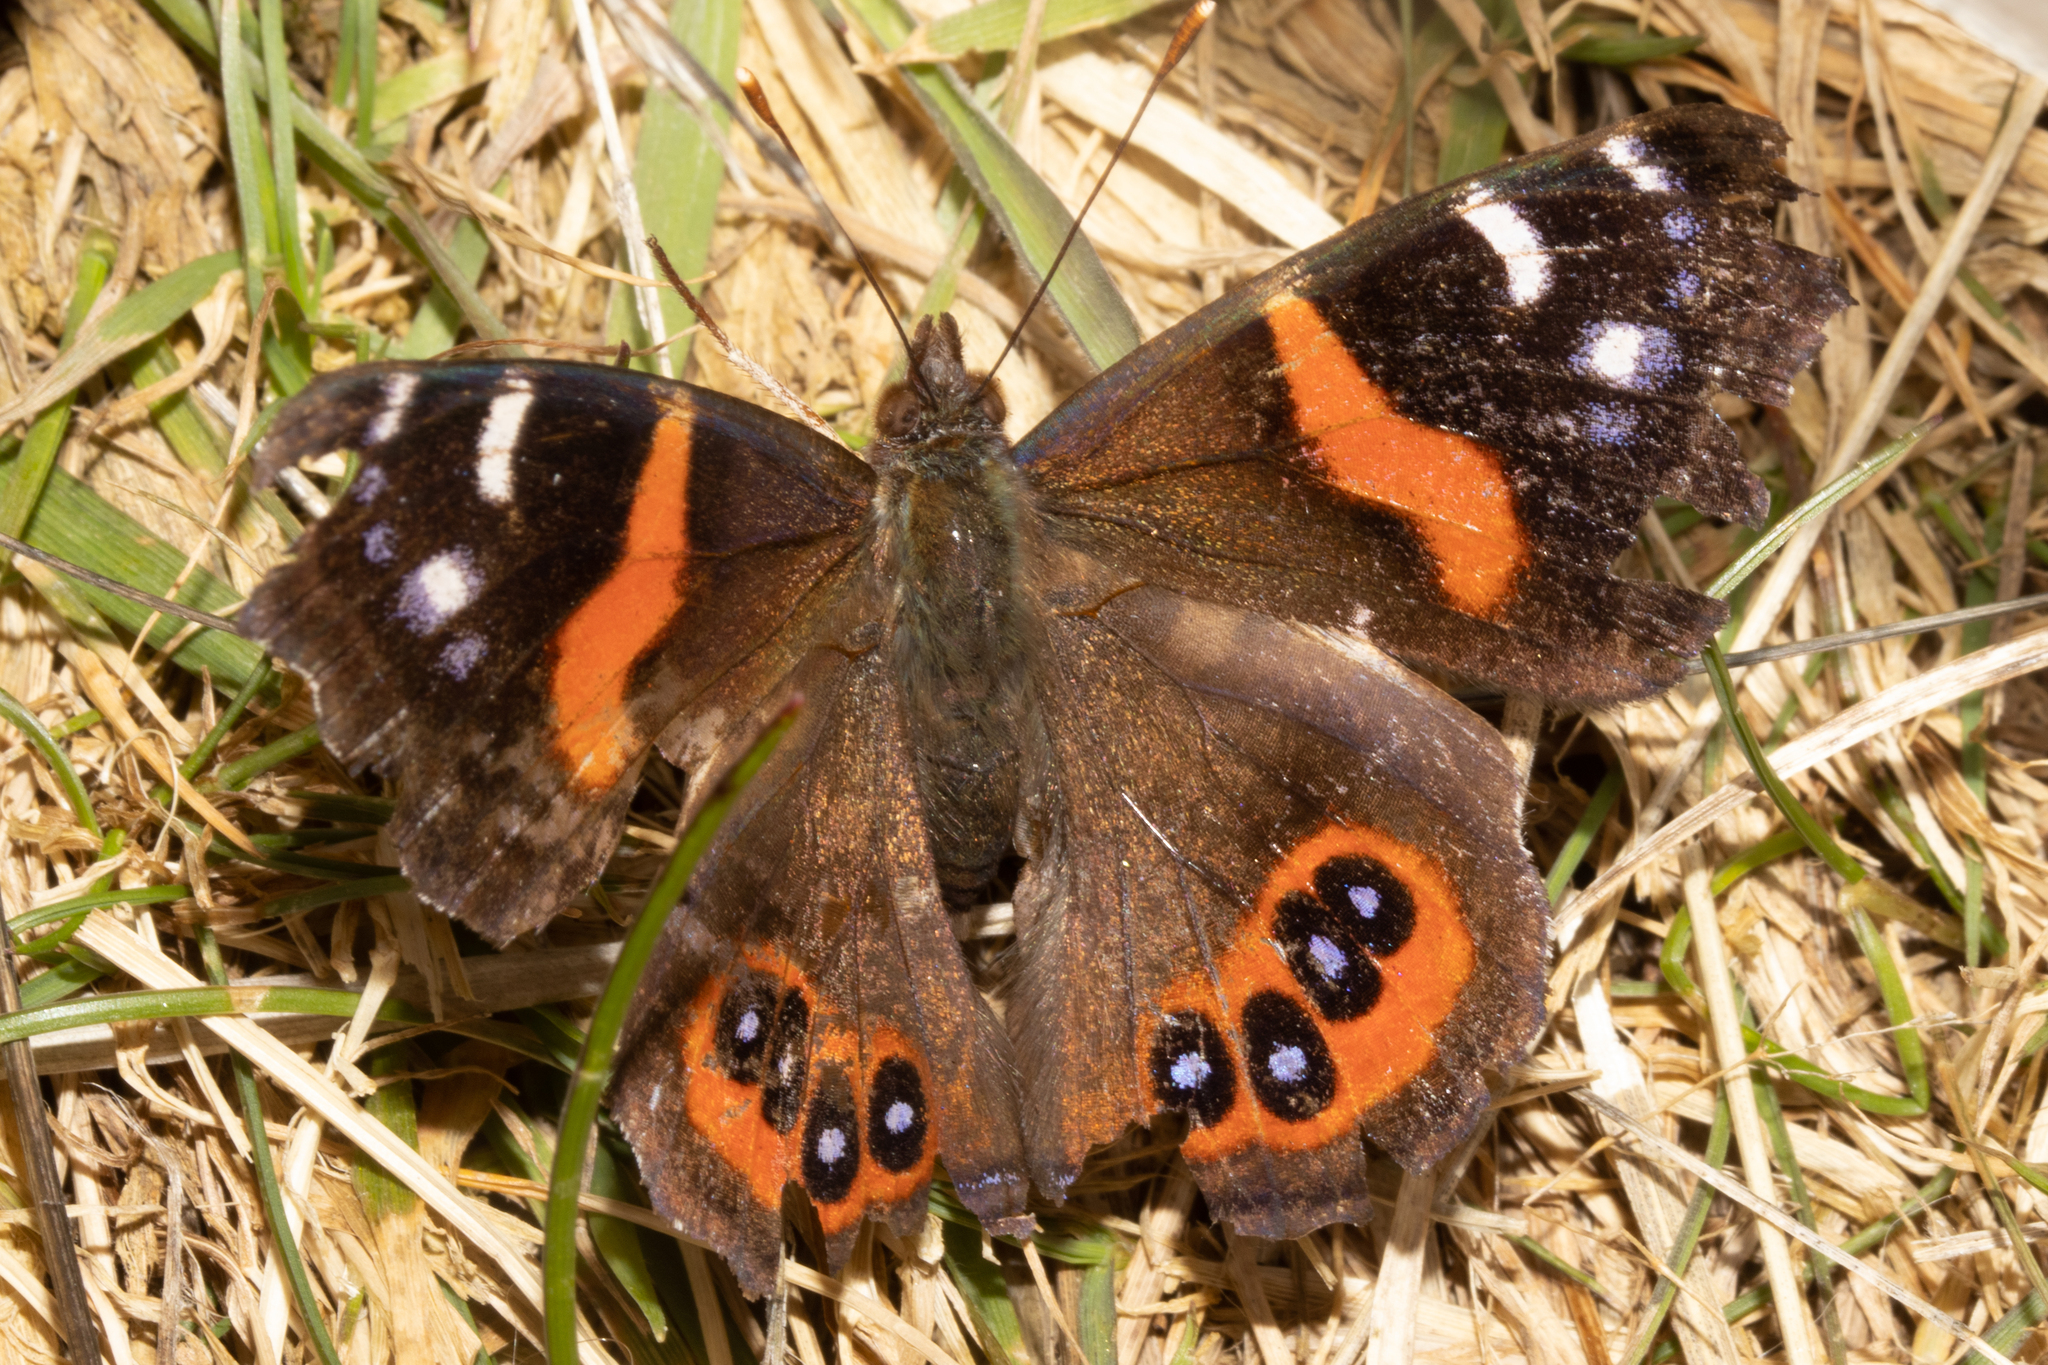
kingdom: Animalia
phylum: Arthropoda
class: Insecta
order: Lepidoptera
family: Nymphalidae
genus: Vanessa
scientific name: Vanessa gonerilla
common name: New zealand red admiral
